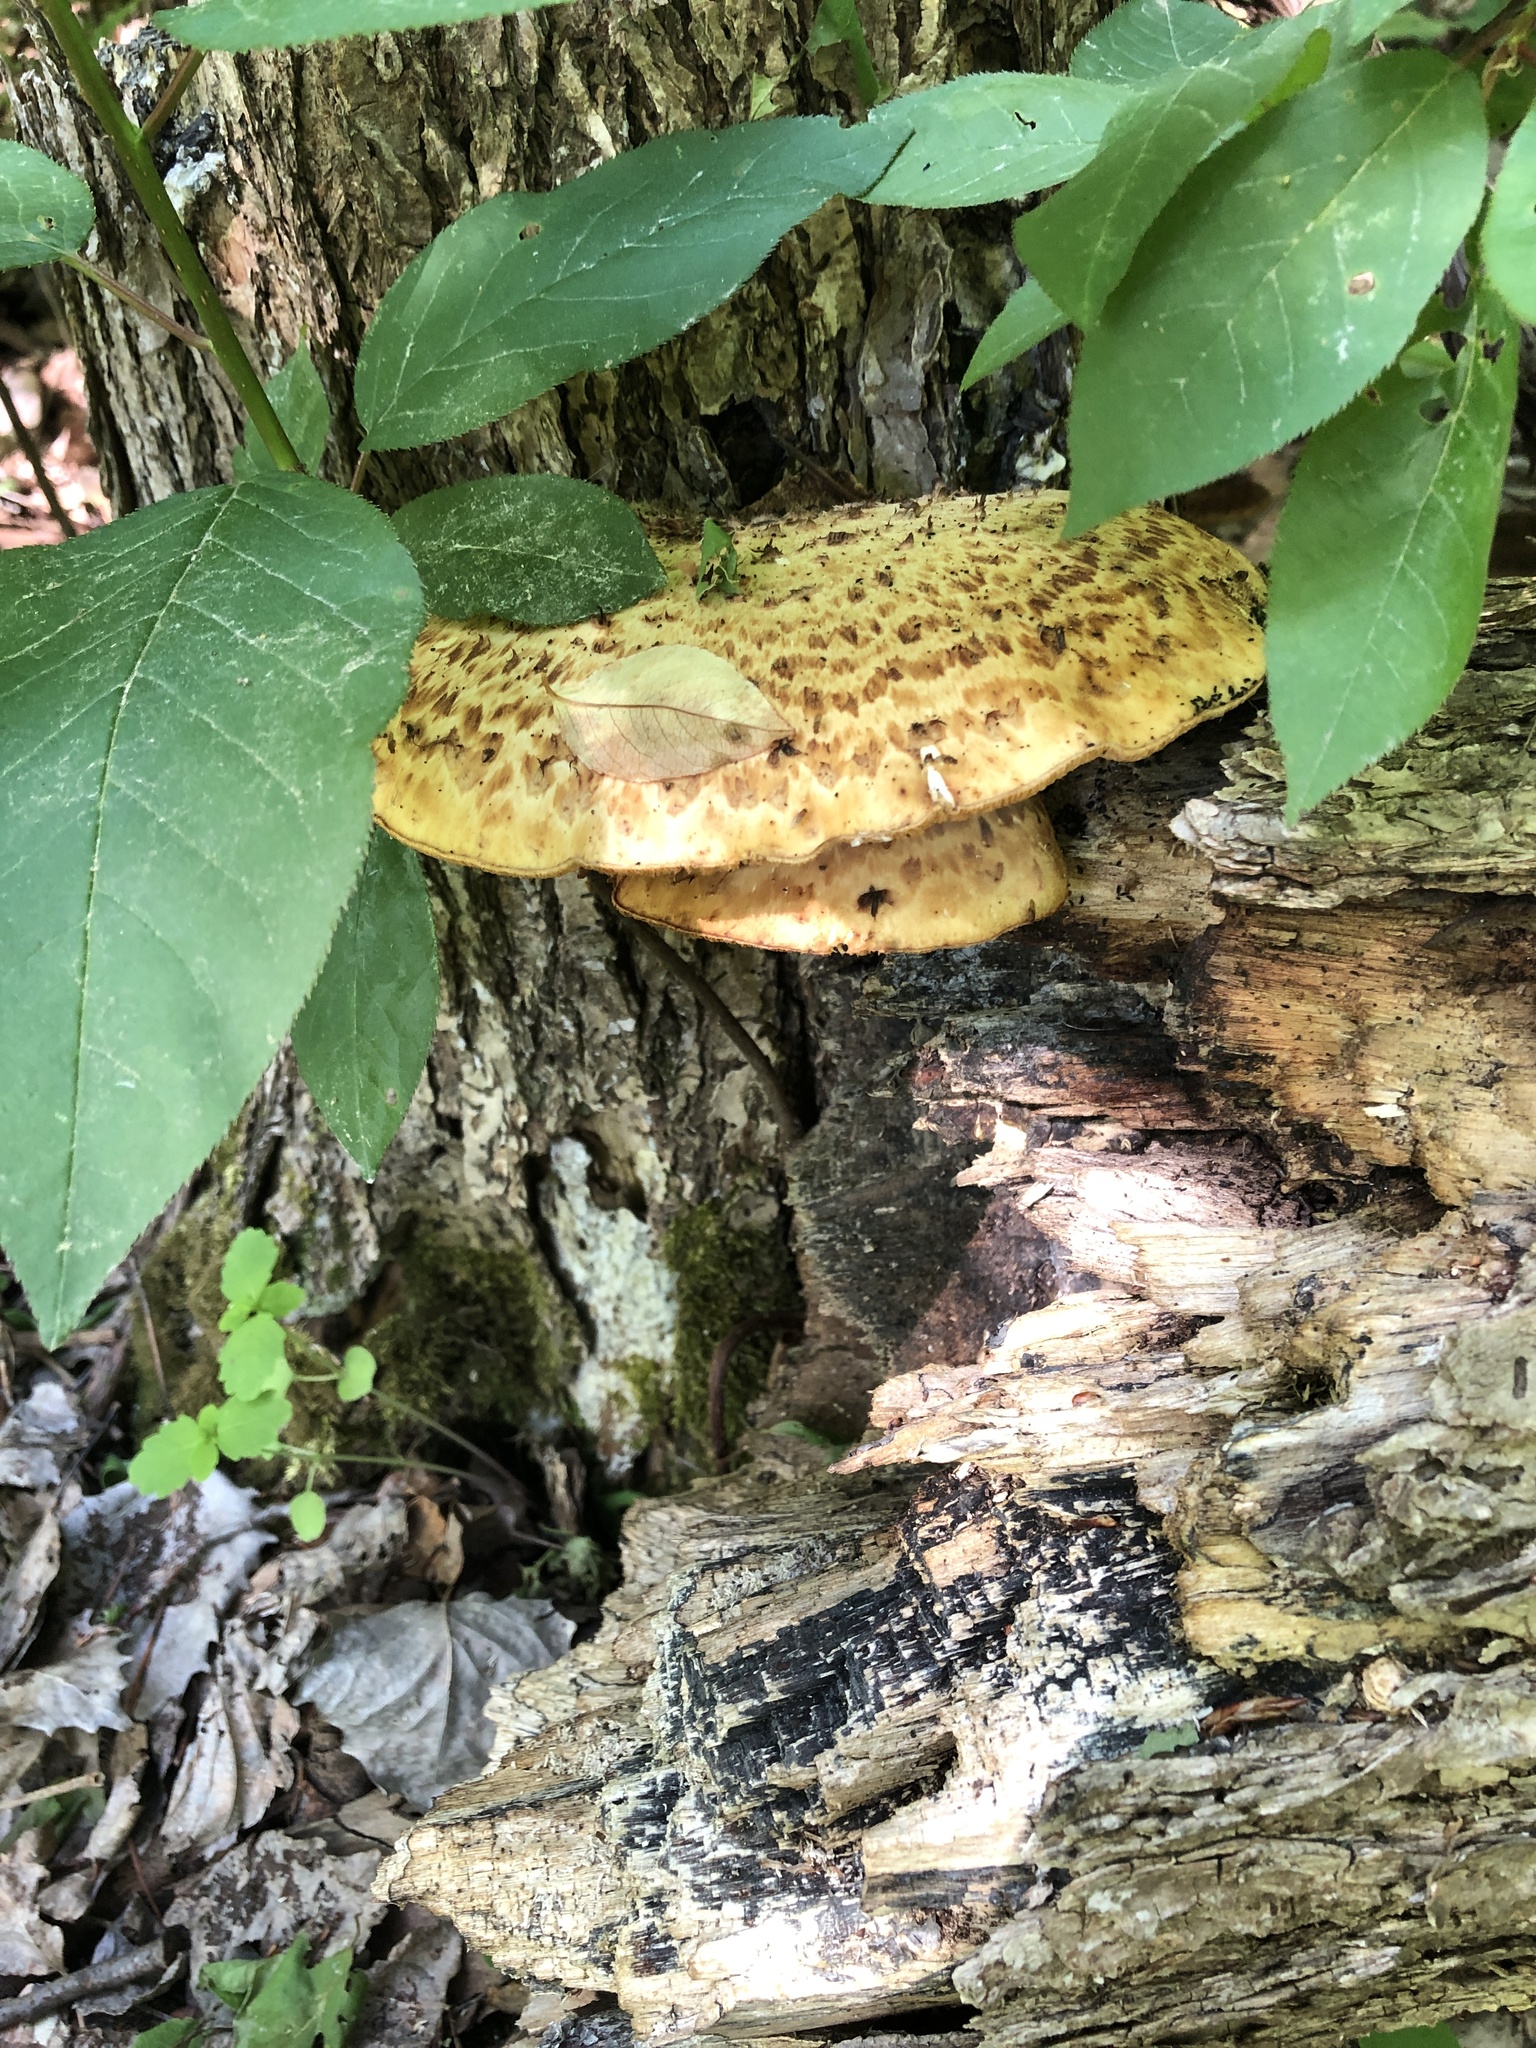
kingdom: Fungi
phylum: Basidiomycota
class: Agaricomycetes
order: Polyporales
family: Polyporaceae
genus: Cerioporus
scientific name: Cerioporus squamosus
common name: Dryad's saddle
